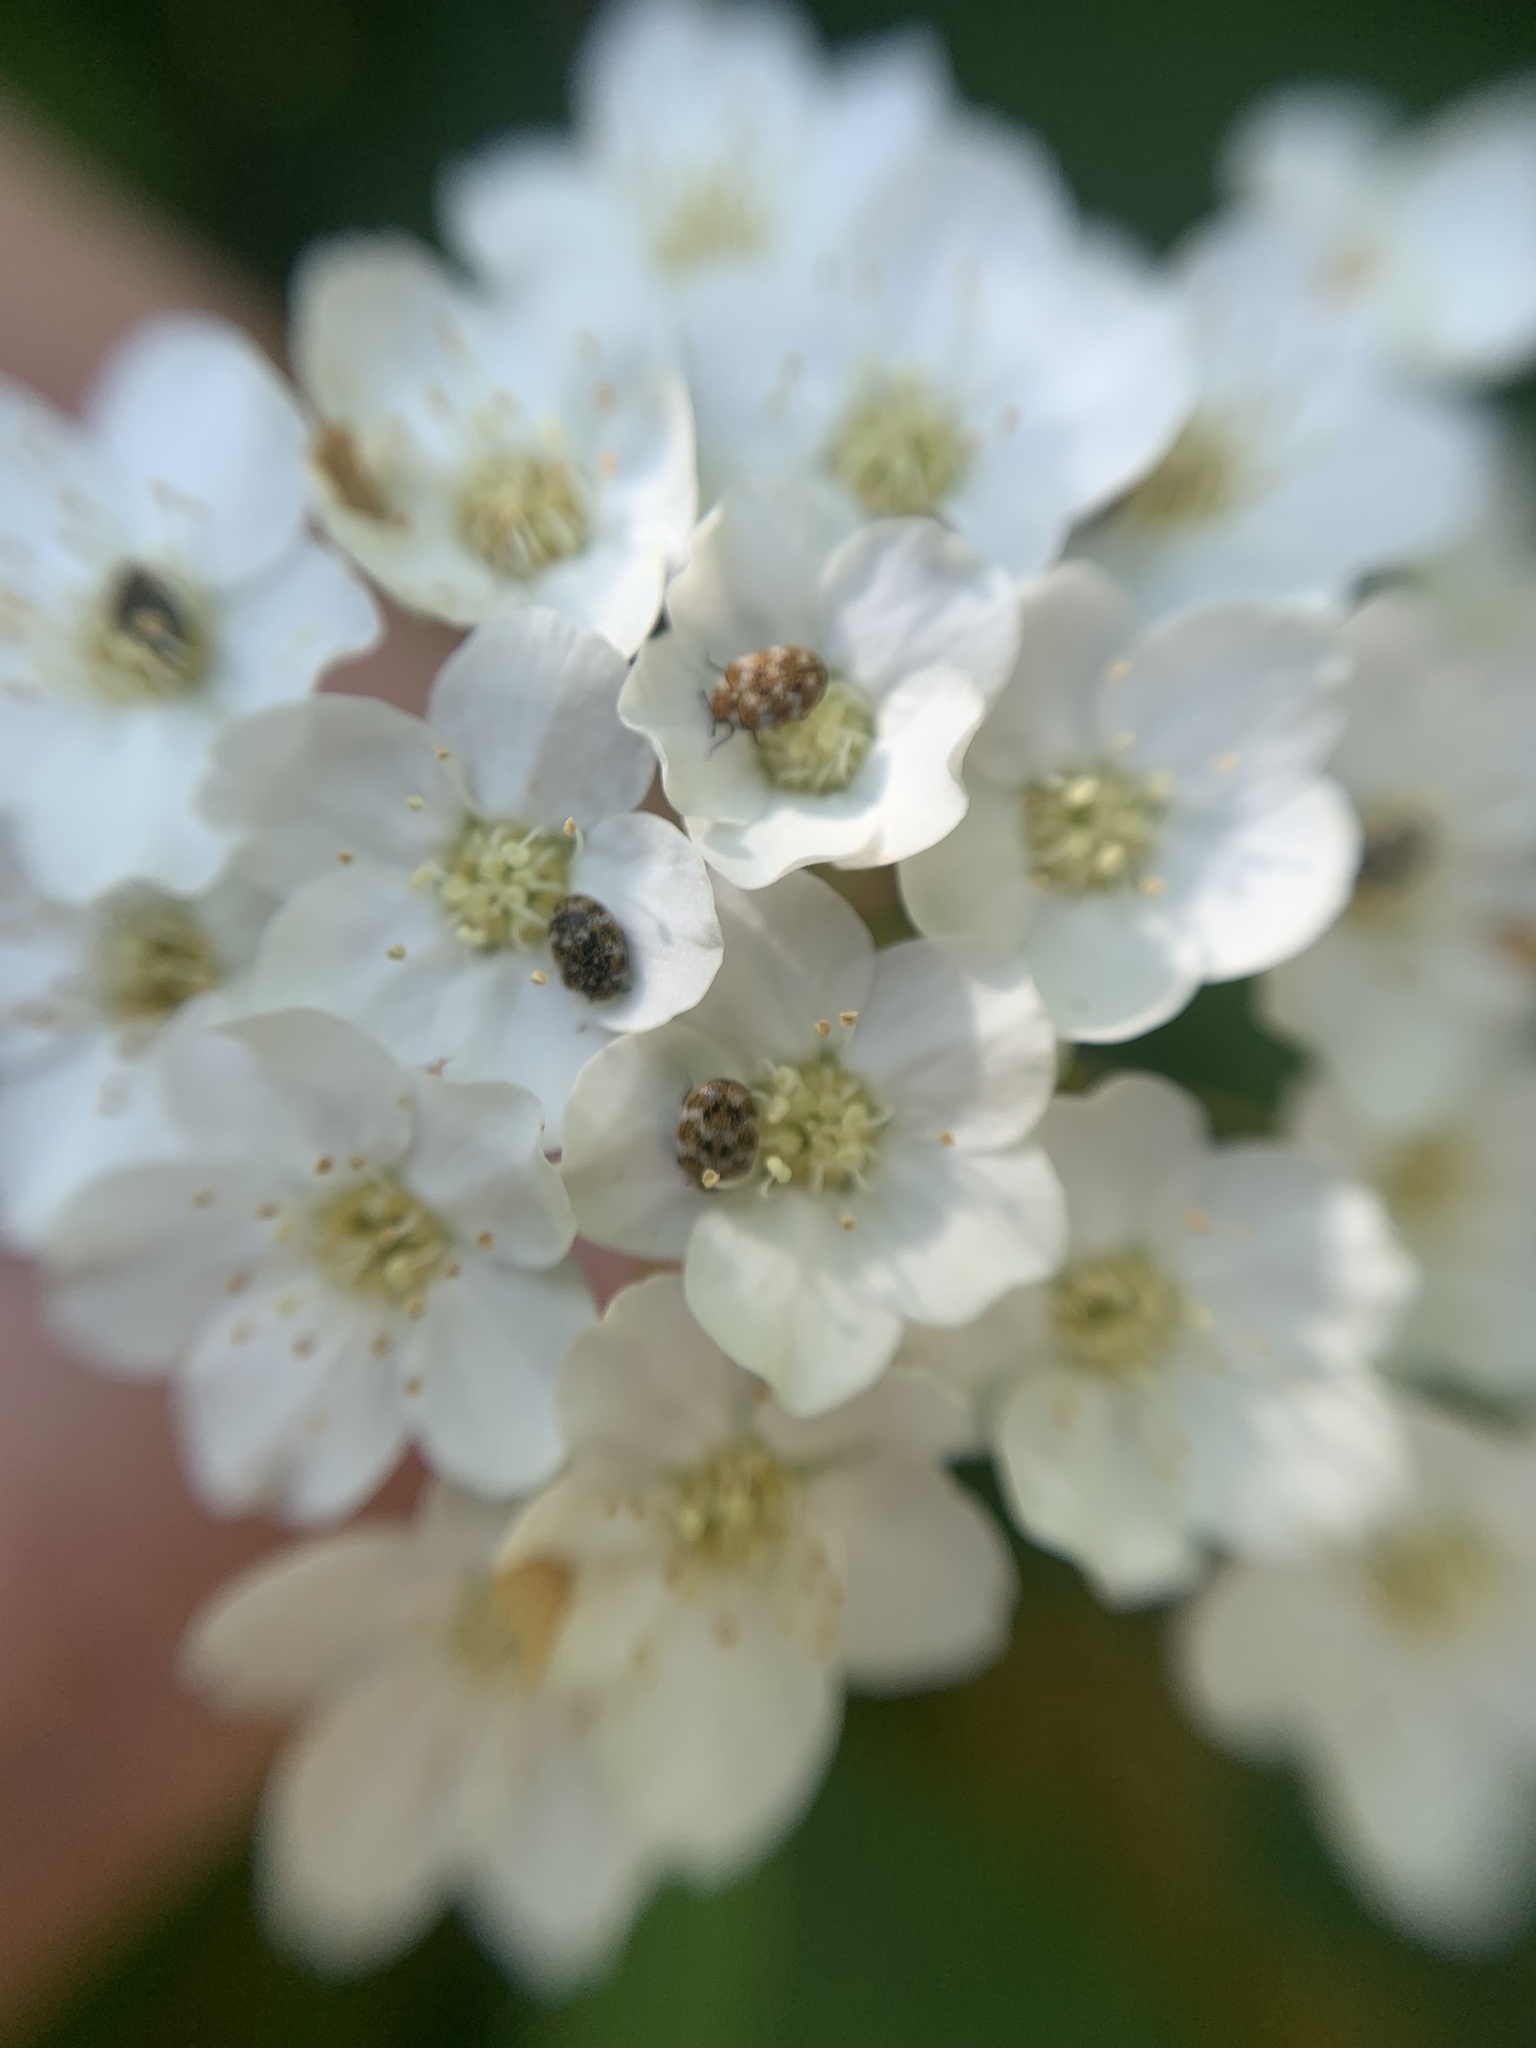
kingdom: Animalia
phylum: Arthropoda
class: Insecta
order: Coleoptera
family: Dermestidae
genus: Anthrenus
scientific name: Anthrenus verbasci
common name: Varied carpet beetle
